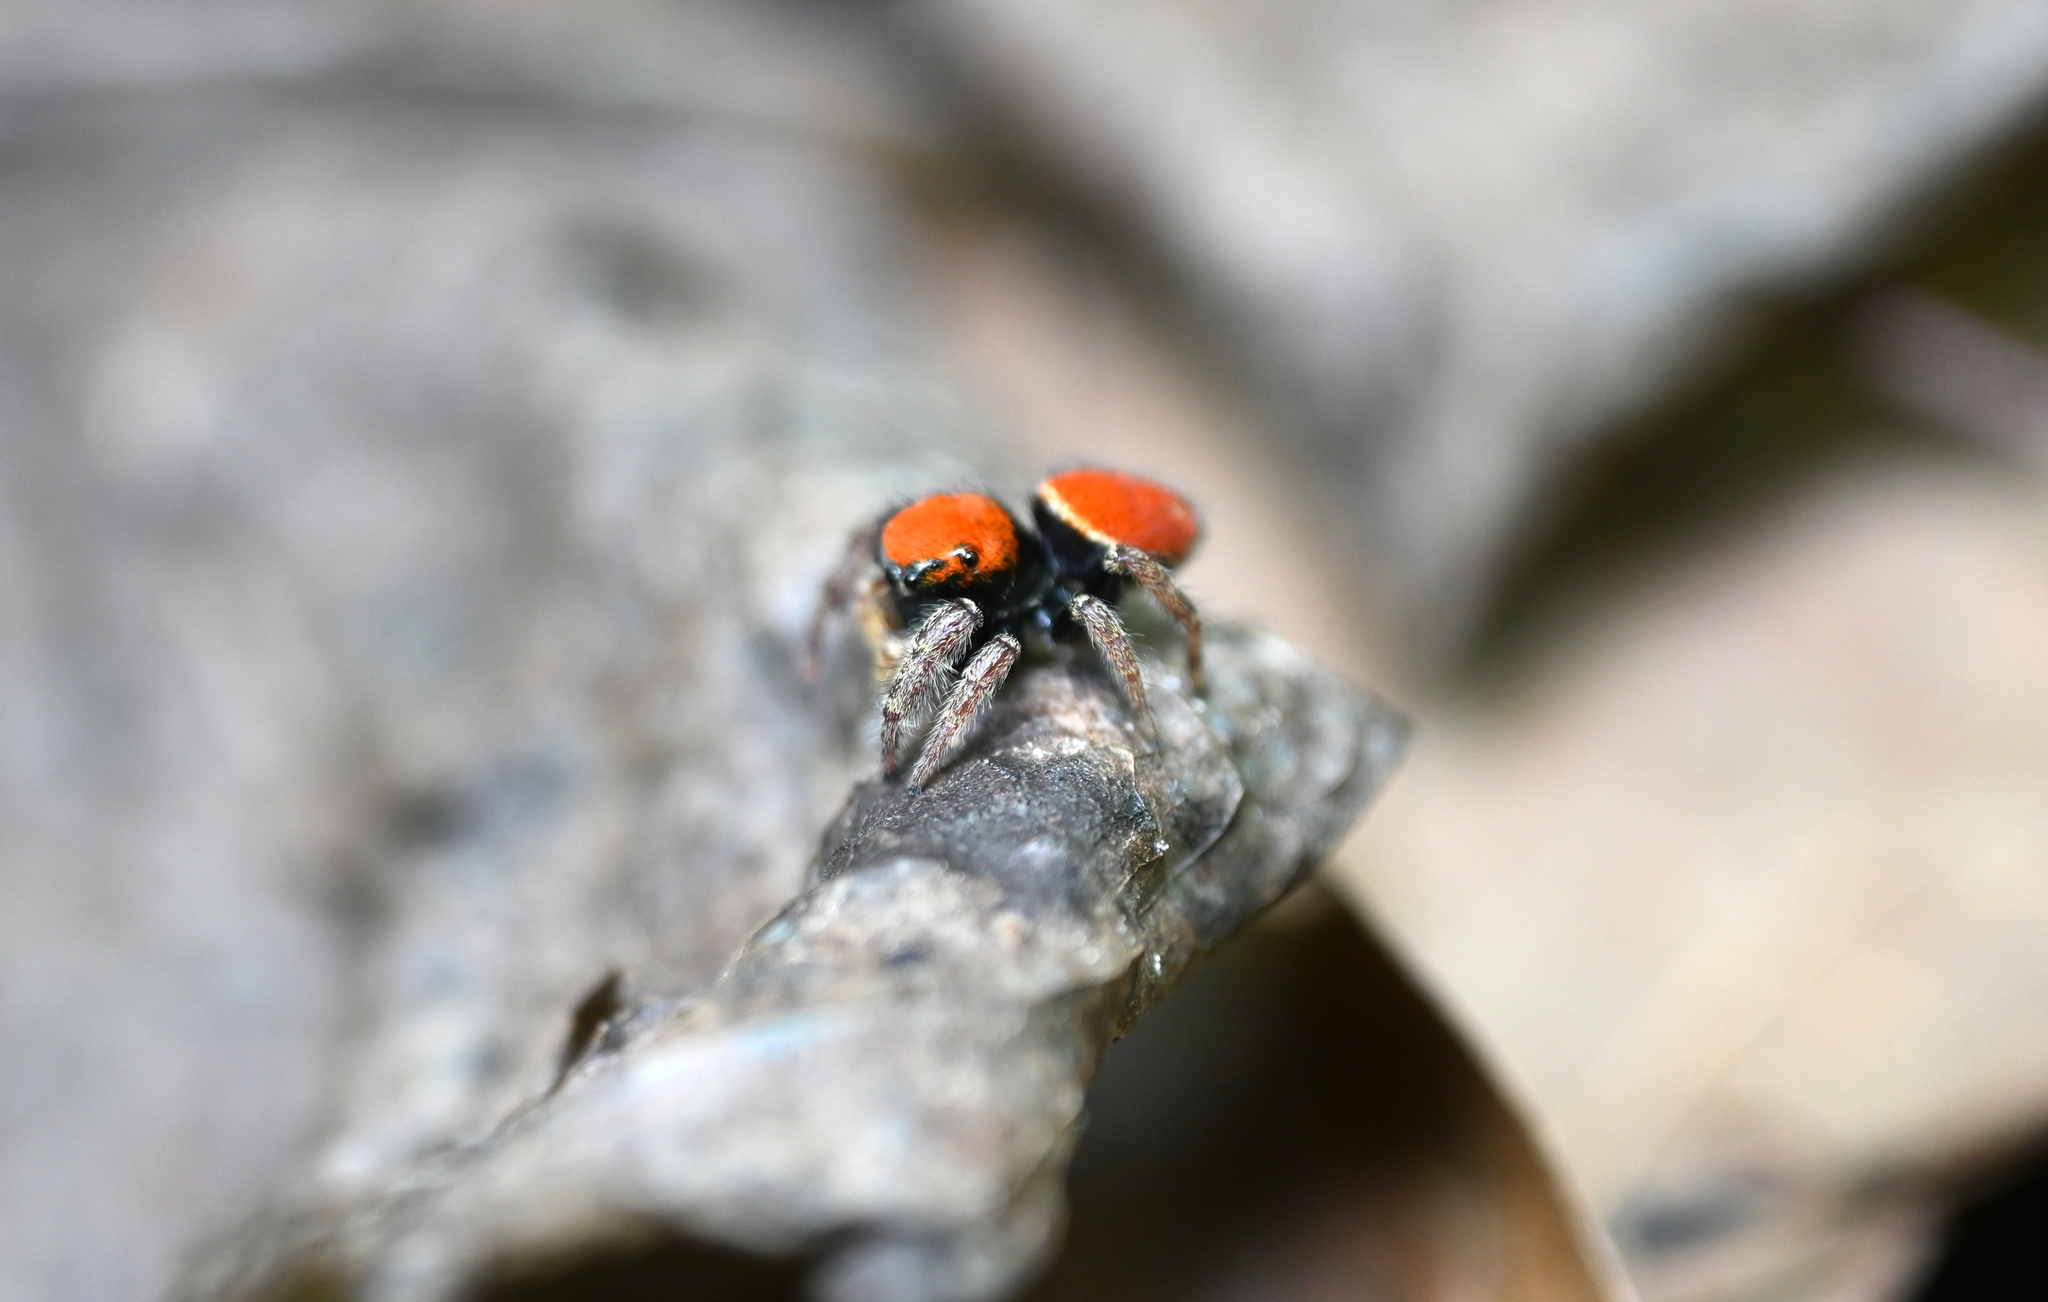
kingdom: Animalia
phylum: Arthropoda
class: Arachnida
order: Araneae
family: Salticidae
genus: Phidippus
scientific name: Phidippus whitmani
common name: Whitman's jumping spider
